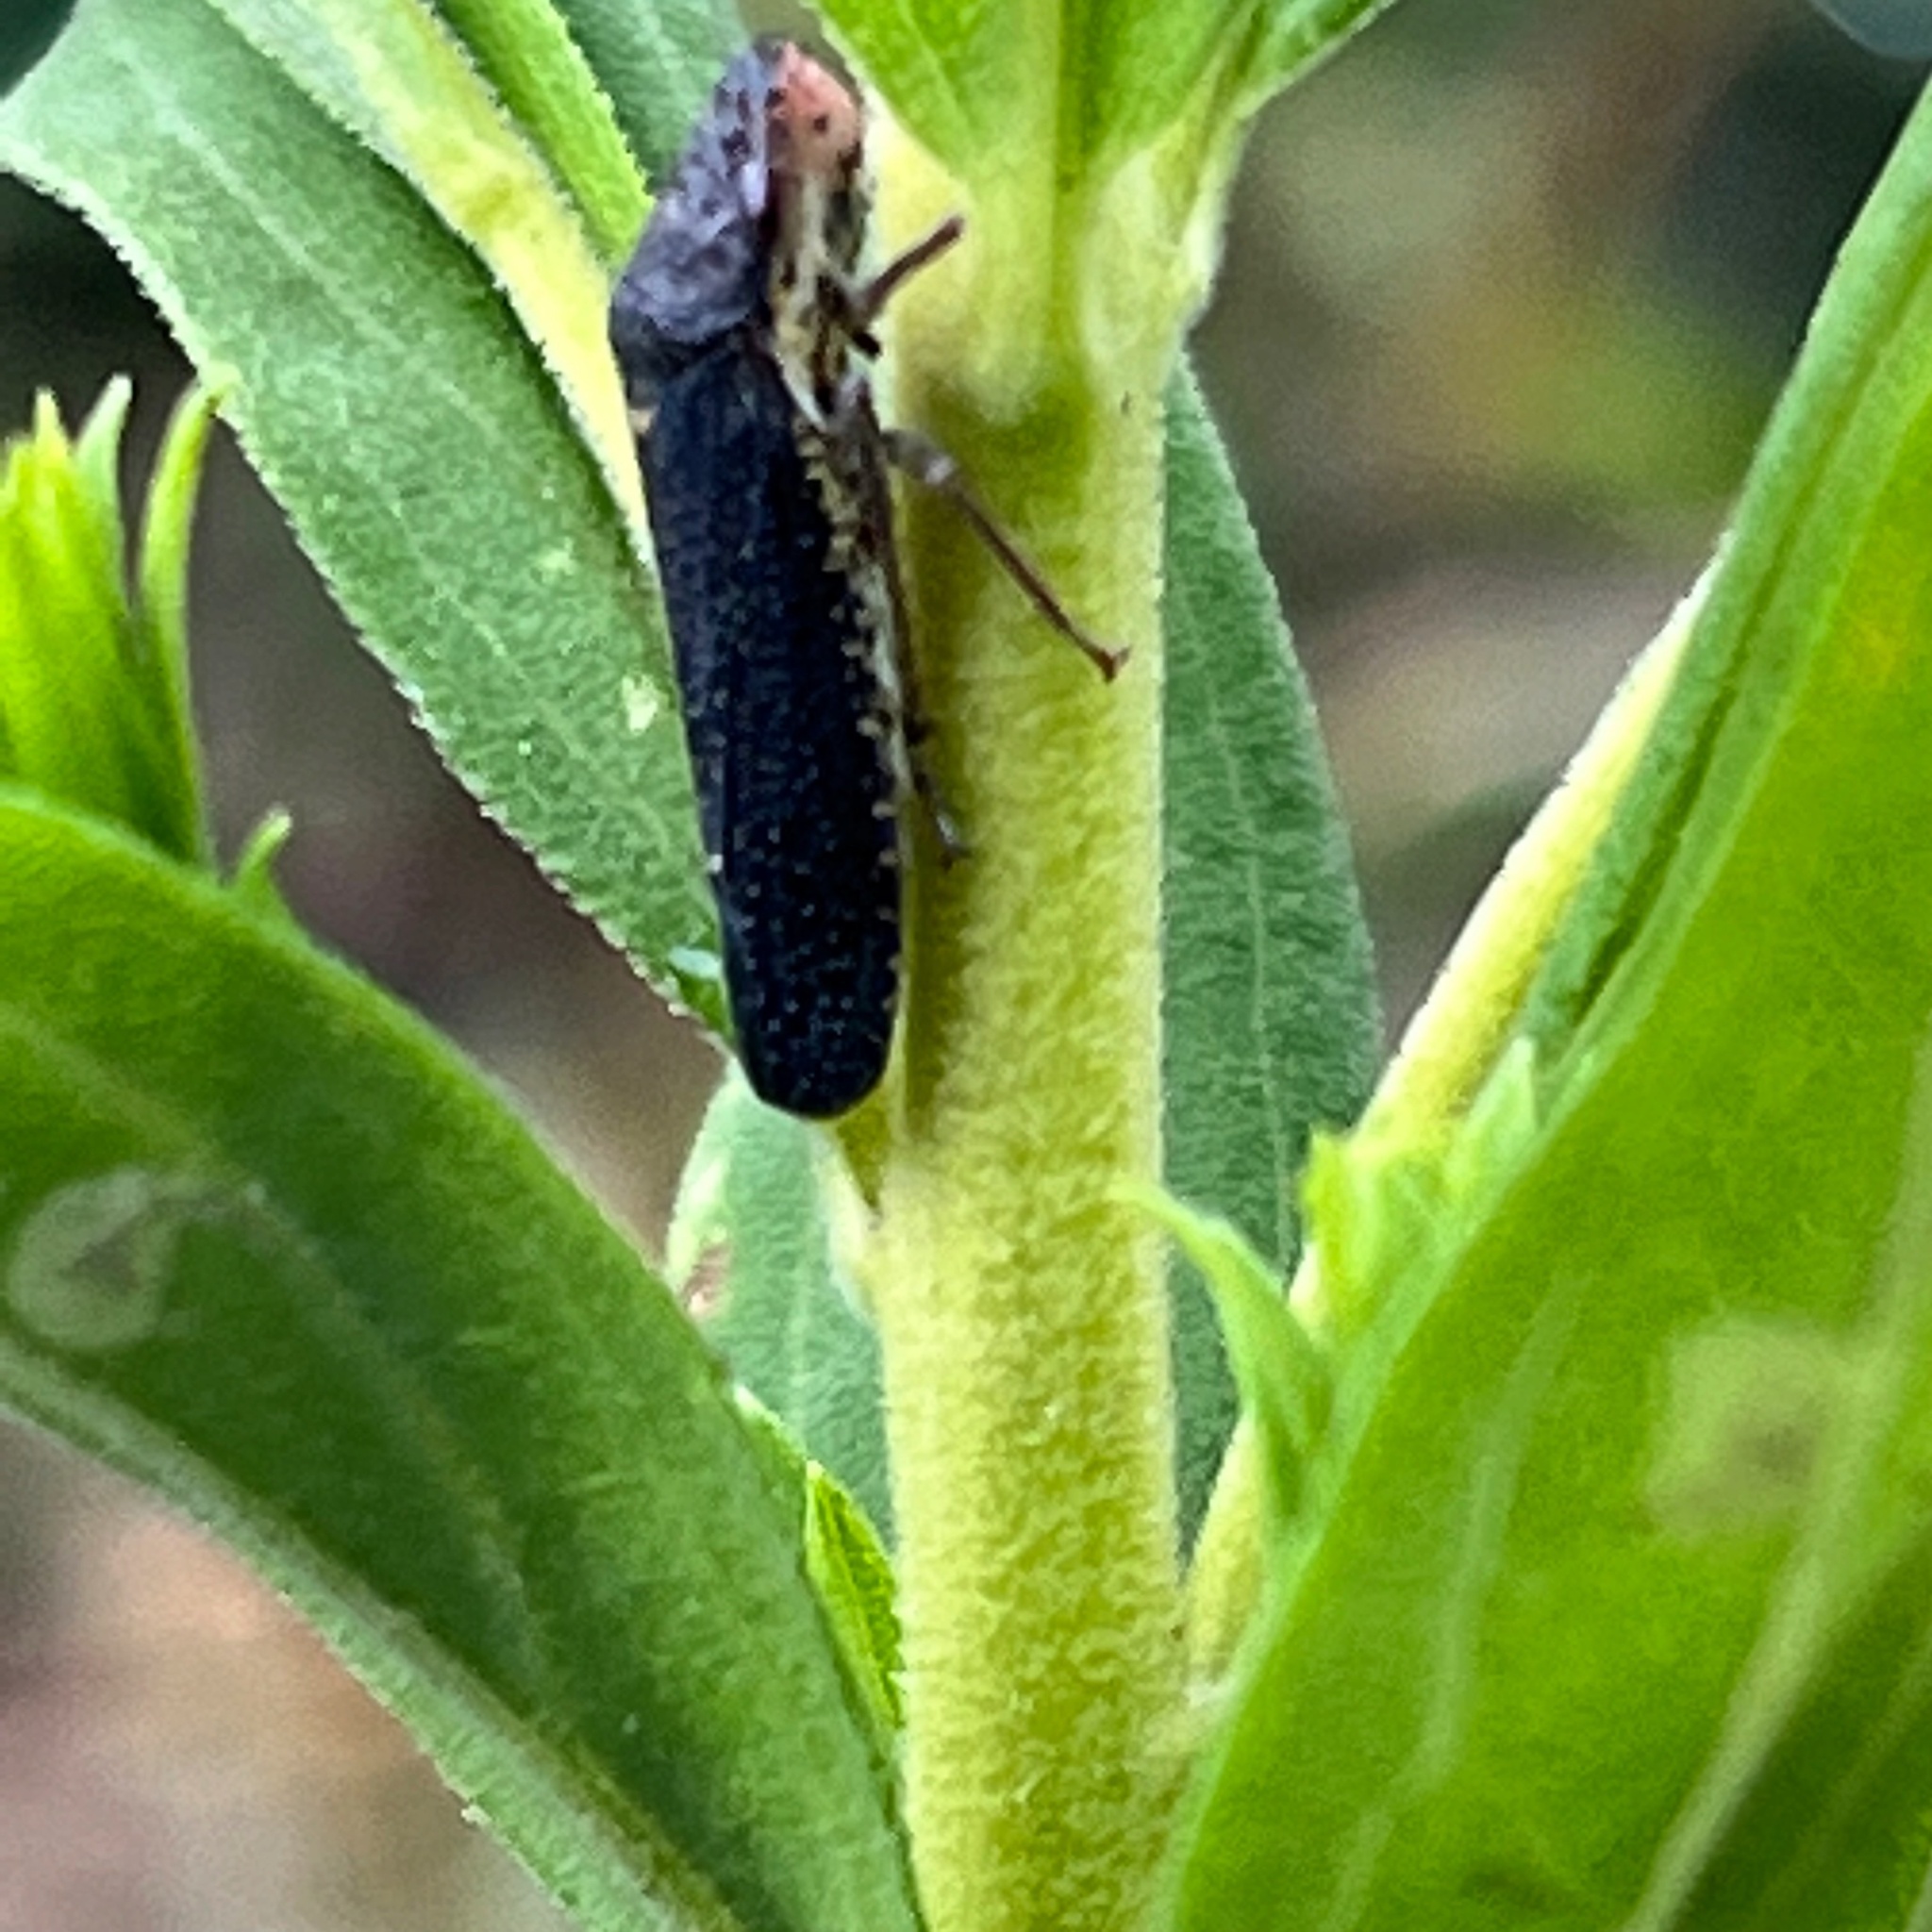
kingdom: Animalia
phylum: Arthropoda
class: Insecta
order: Hemiptera
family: Cicadellidae
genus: Paraulacizes
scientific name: Paraulacizes irrorata
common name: Speckled sharpshooter
